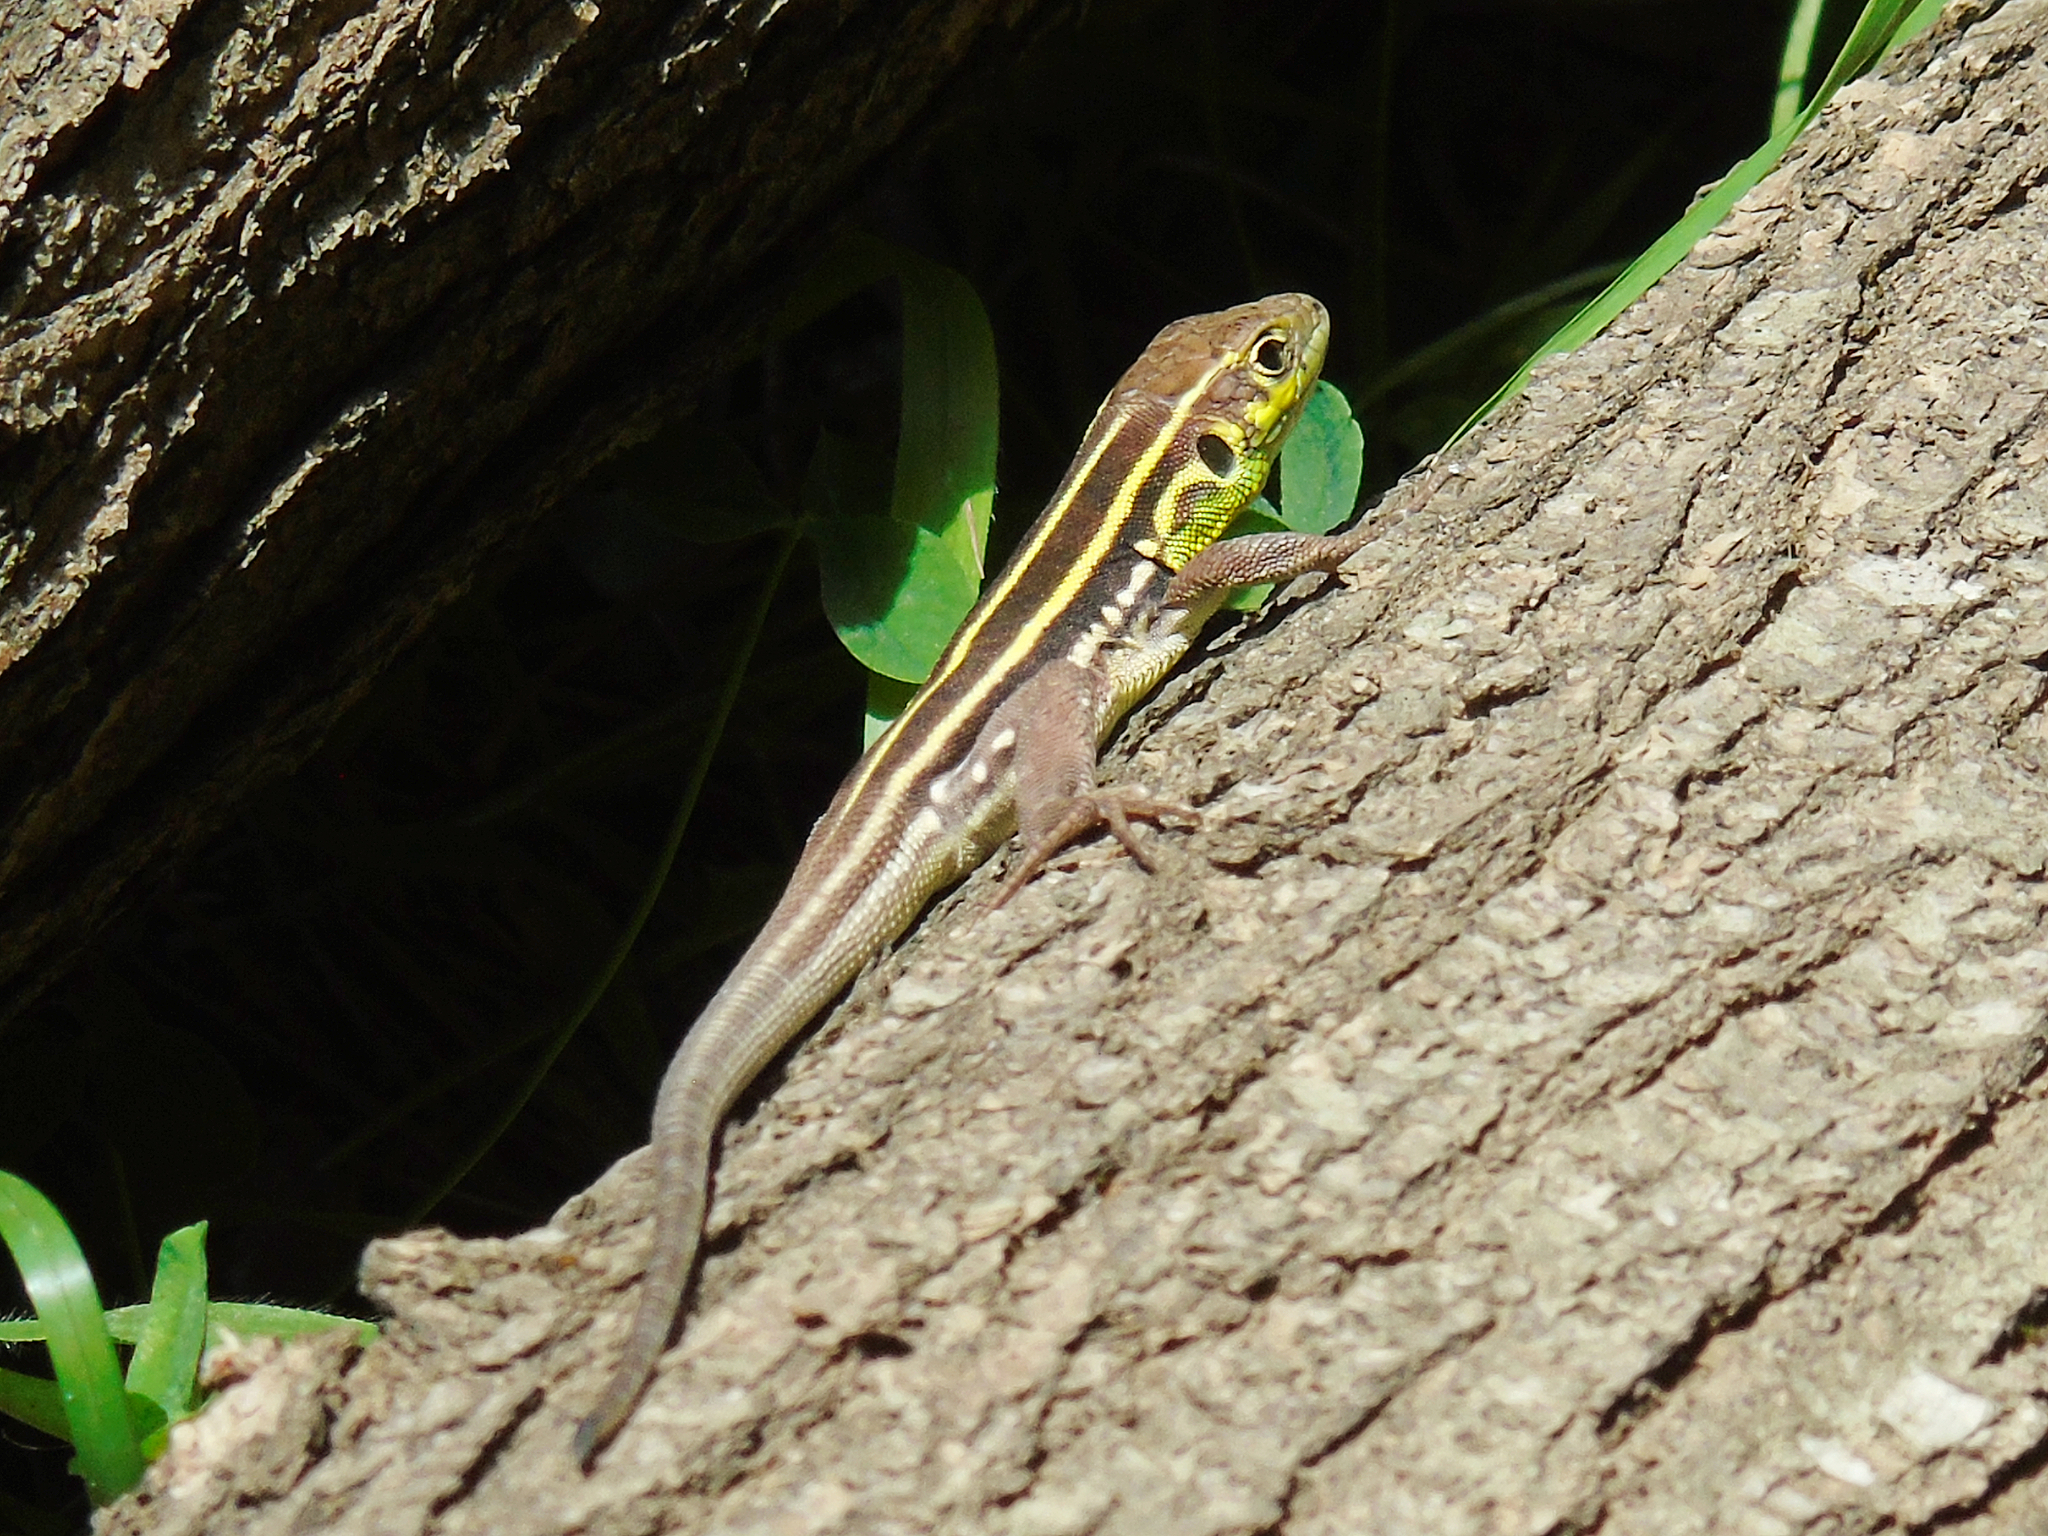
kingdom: Animalia
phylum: Chordata
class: Squamata
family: Lacertidae
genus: Lacerta
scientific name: Lacerta media
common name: Medium lizard
